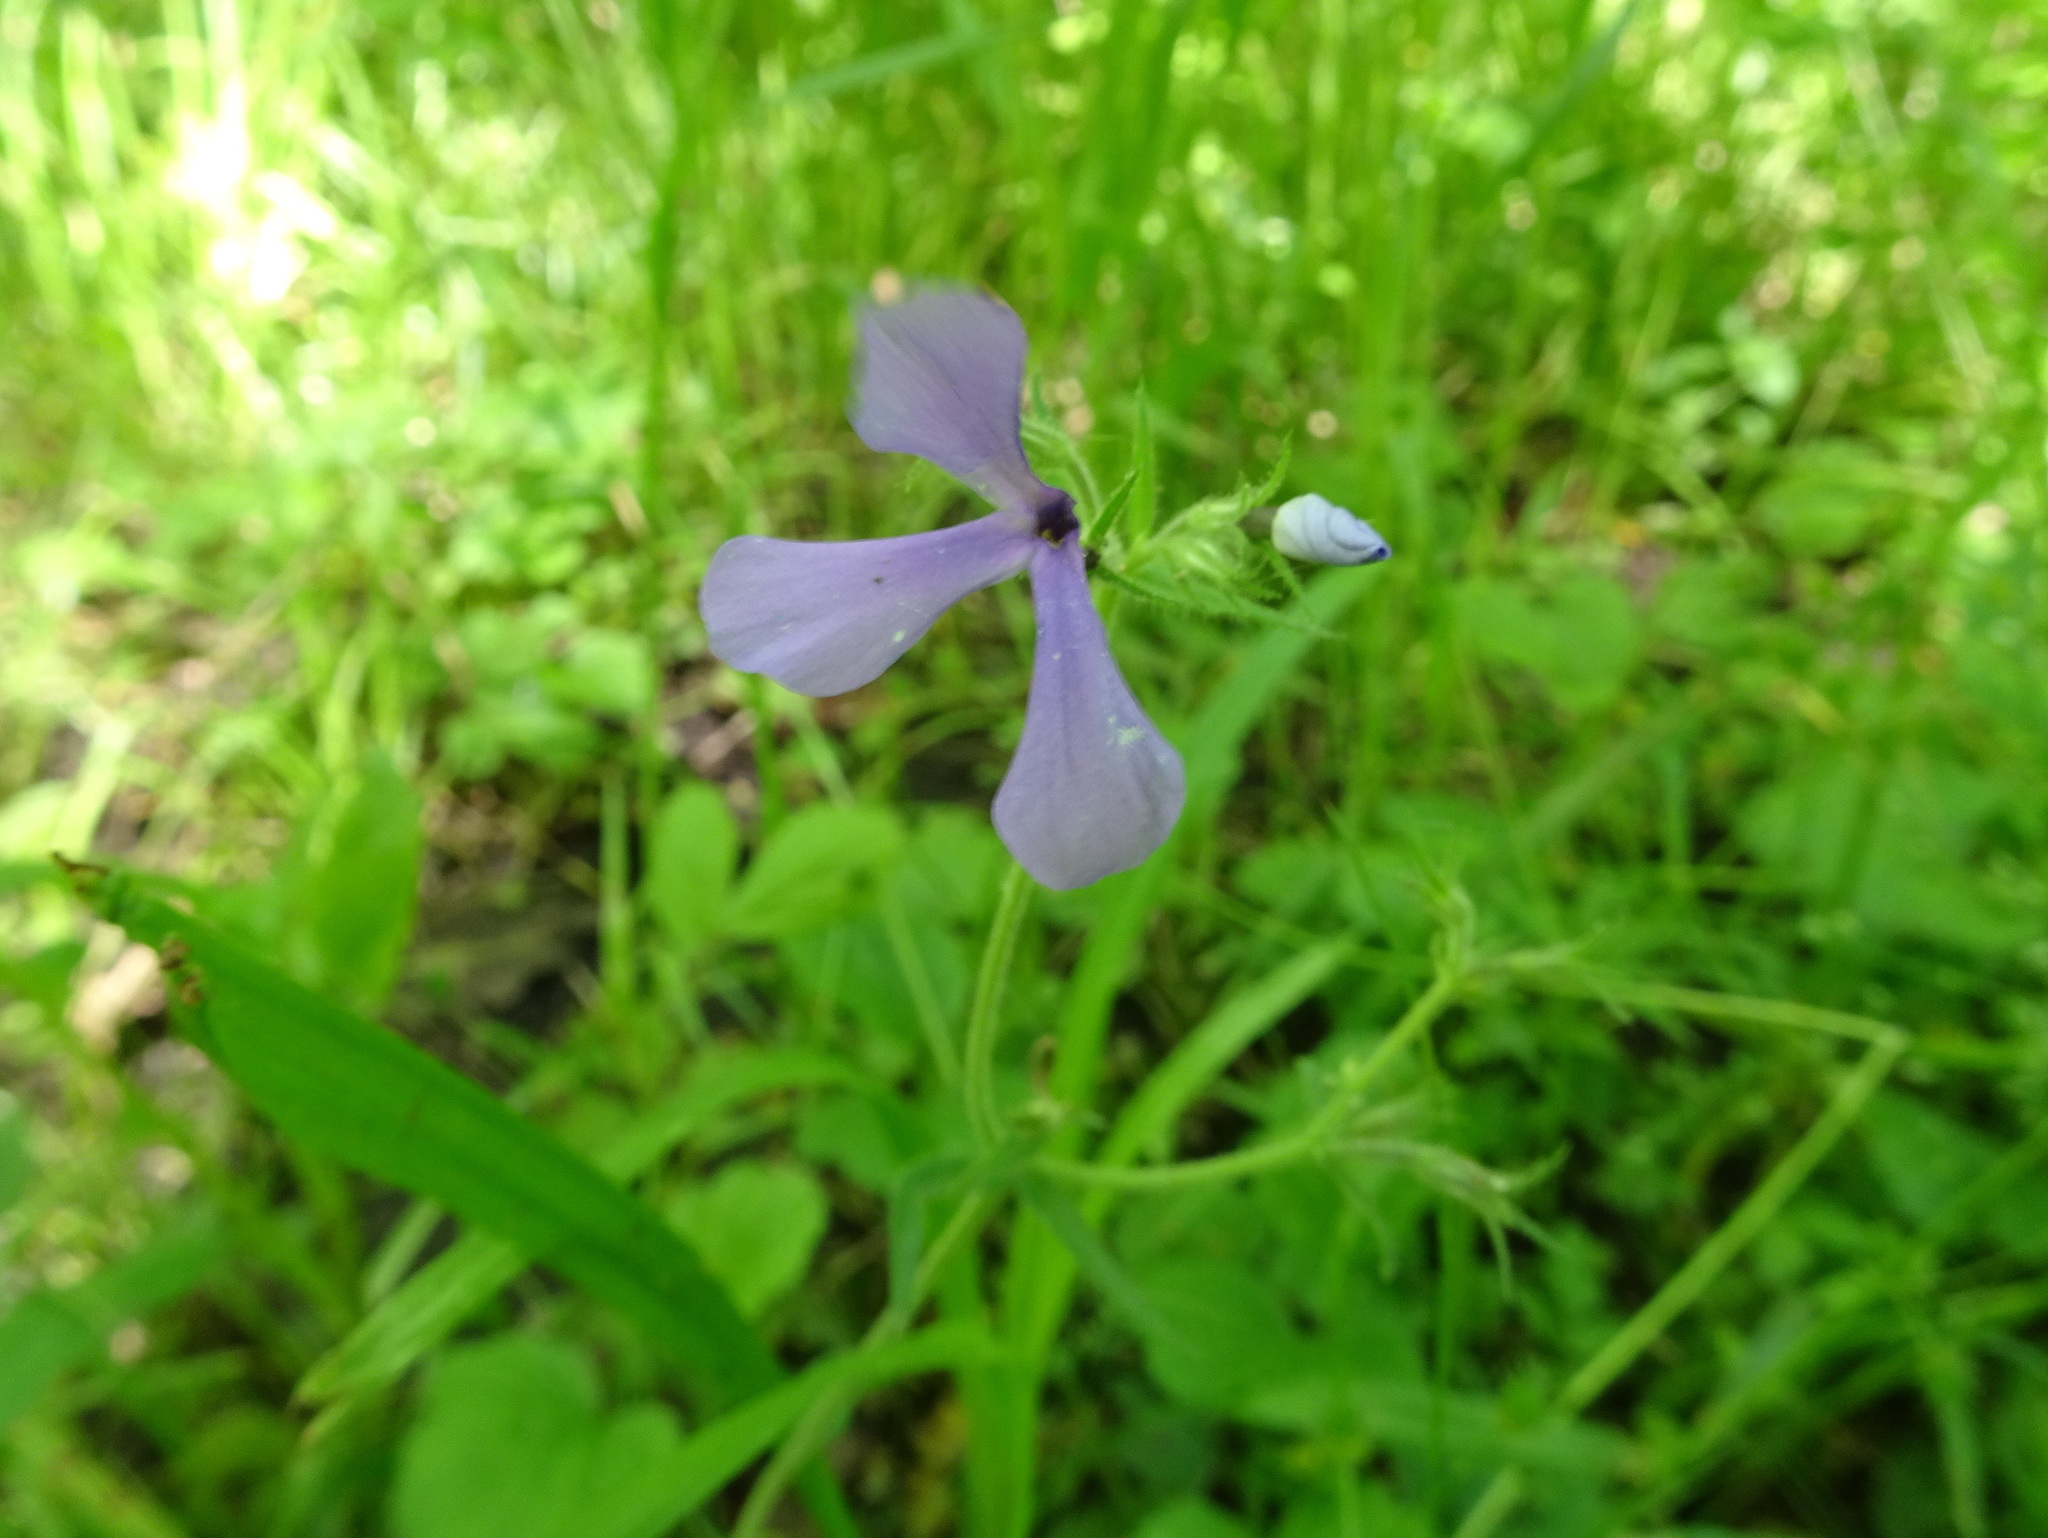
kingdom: Plantae
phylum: Tracheophyta
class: Magnoliopsida
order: Ericales
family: Polemoniaceae
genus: Phlox
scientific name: Phlox divaricata
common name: Blue phlox
